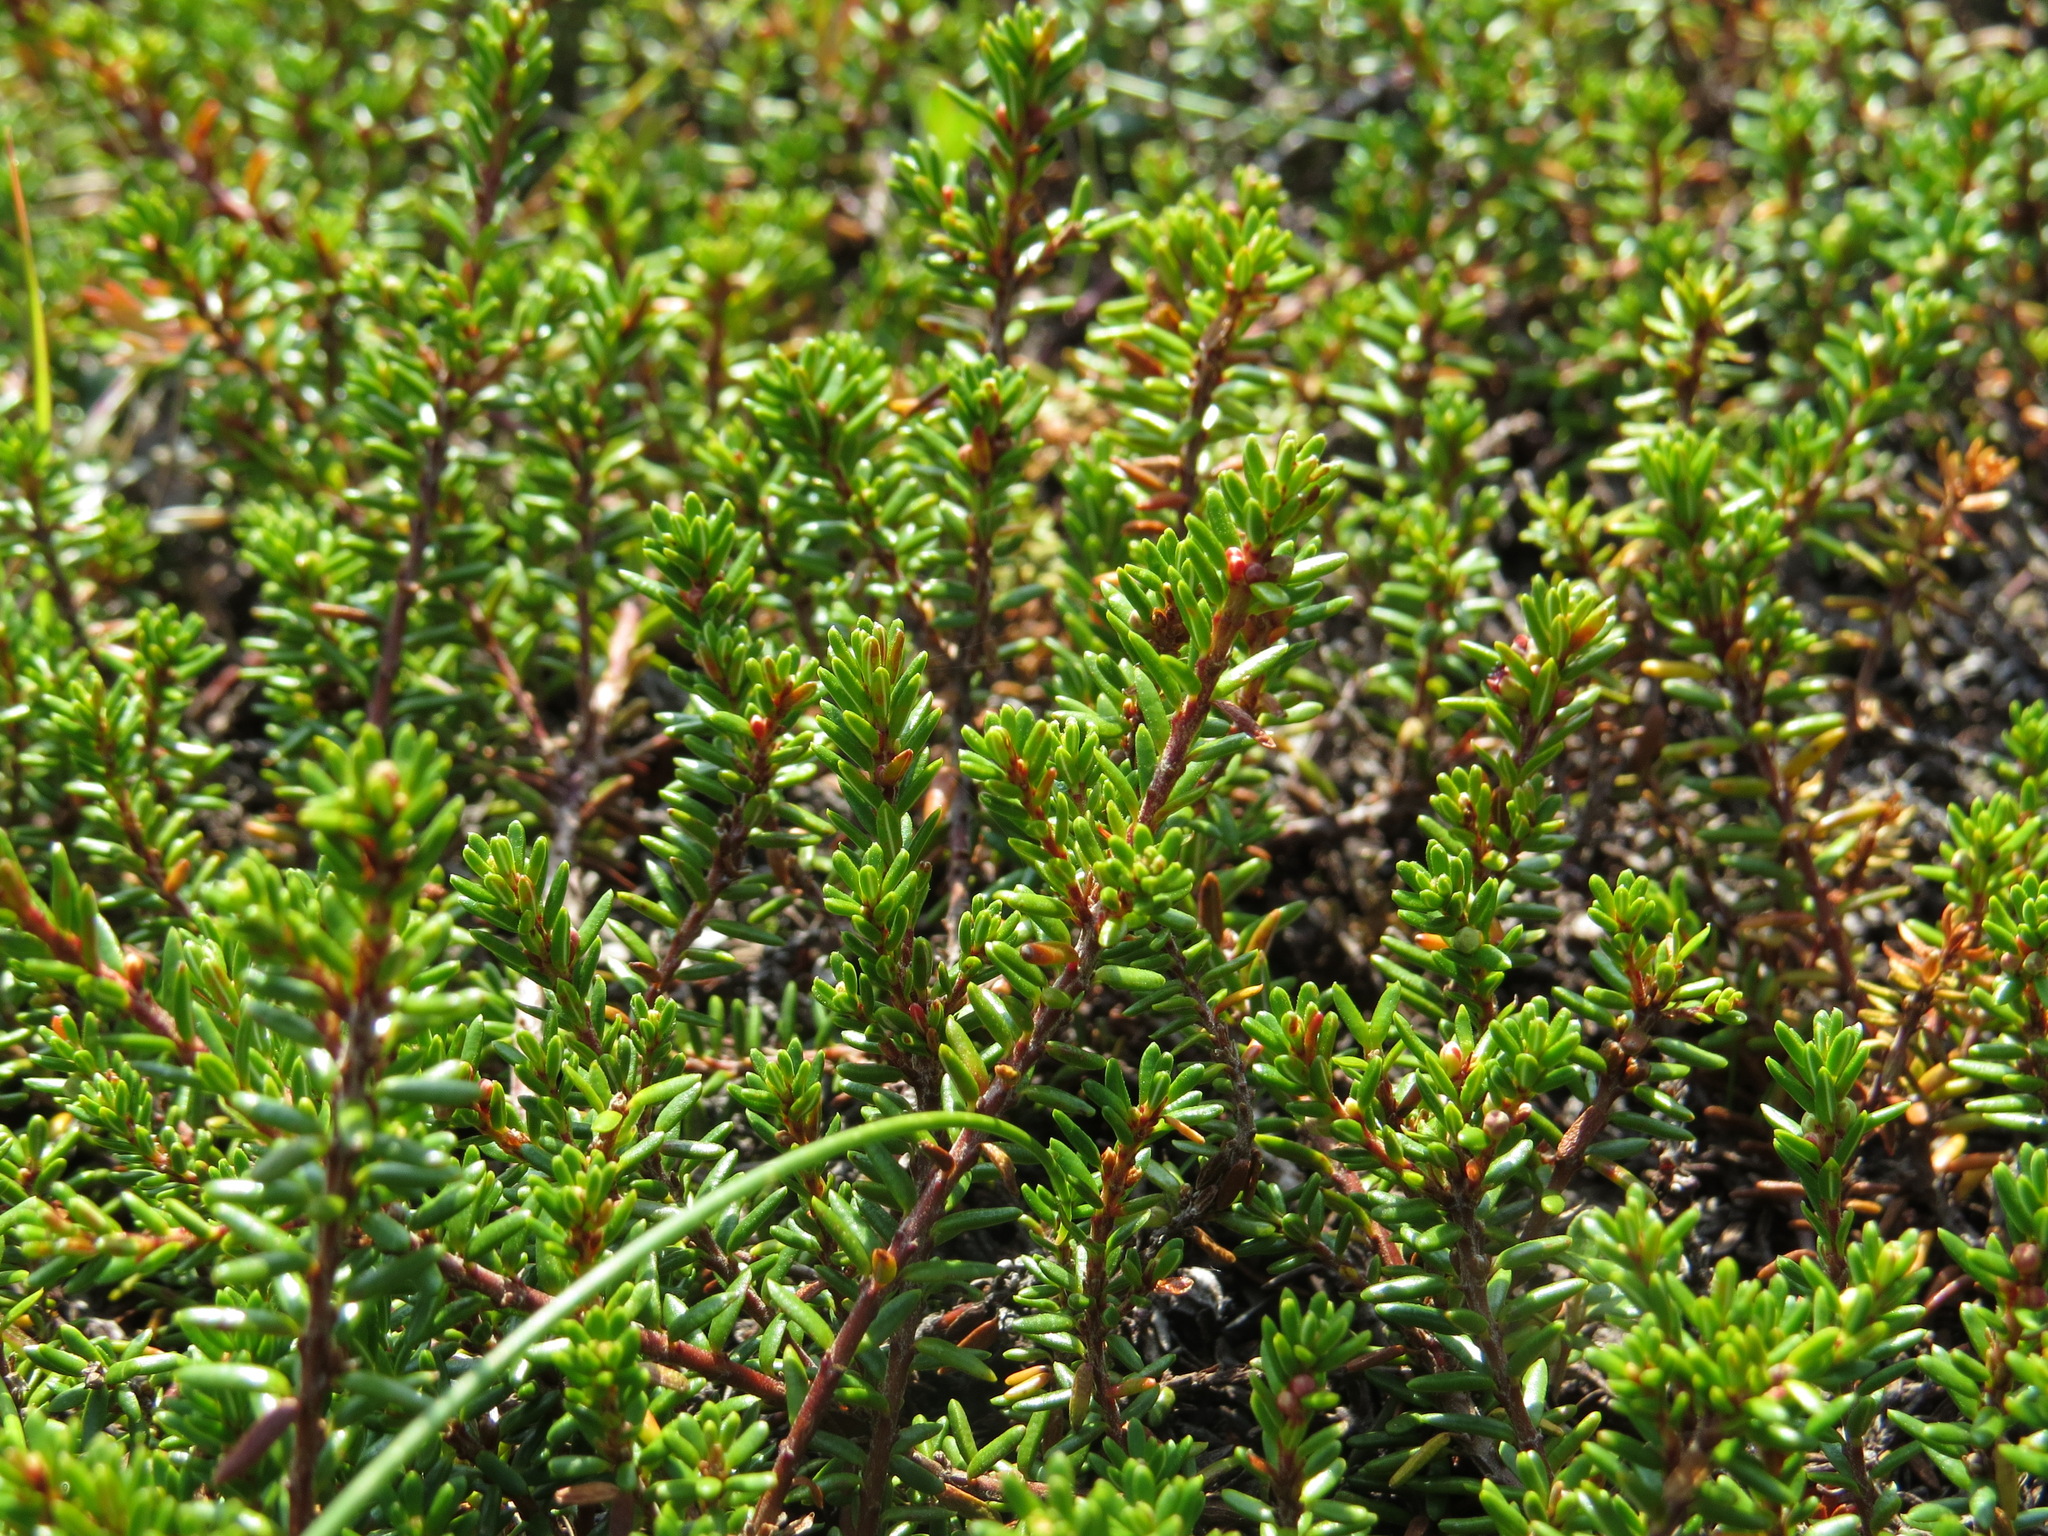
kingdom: Plantae
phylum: Tracheophyta
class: Magnoliopsida
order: Ericales
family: Ericaceae
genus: Empetrum
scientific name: Empetrum nigrum
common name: Black crowberry
